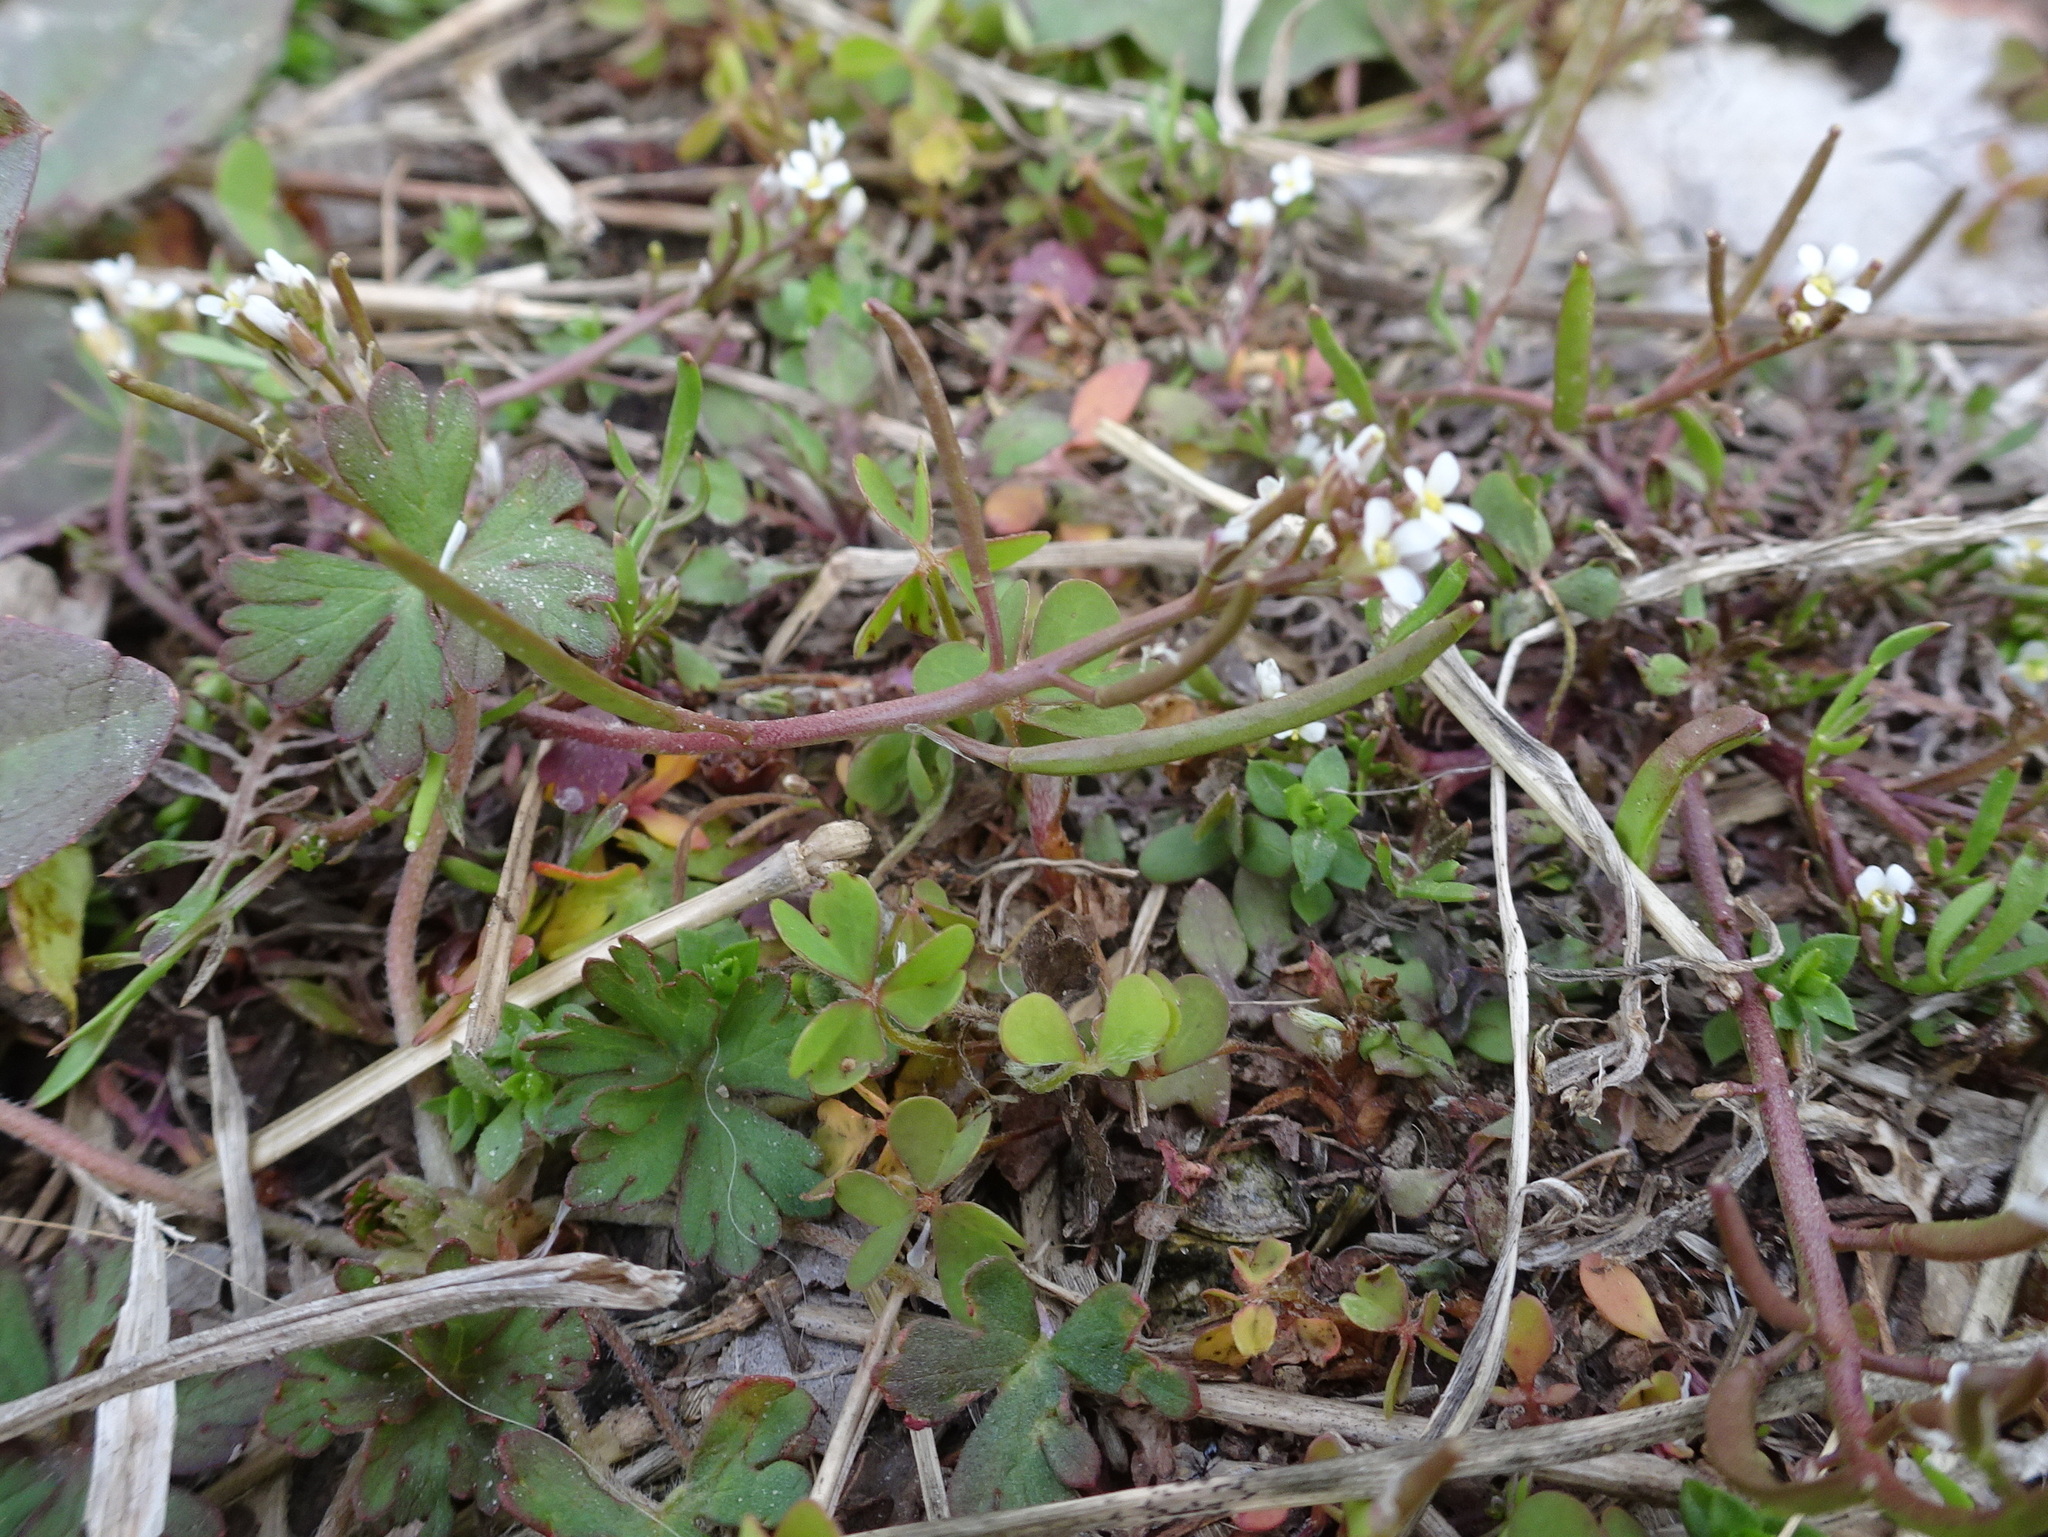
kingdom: Plantae
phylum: Tracheophyta
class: Magnoliopsida
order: Brassicales
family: Brassicaceae
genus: Planodes
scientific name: Planodes virginicum
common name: Virginia cress
